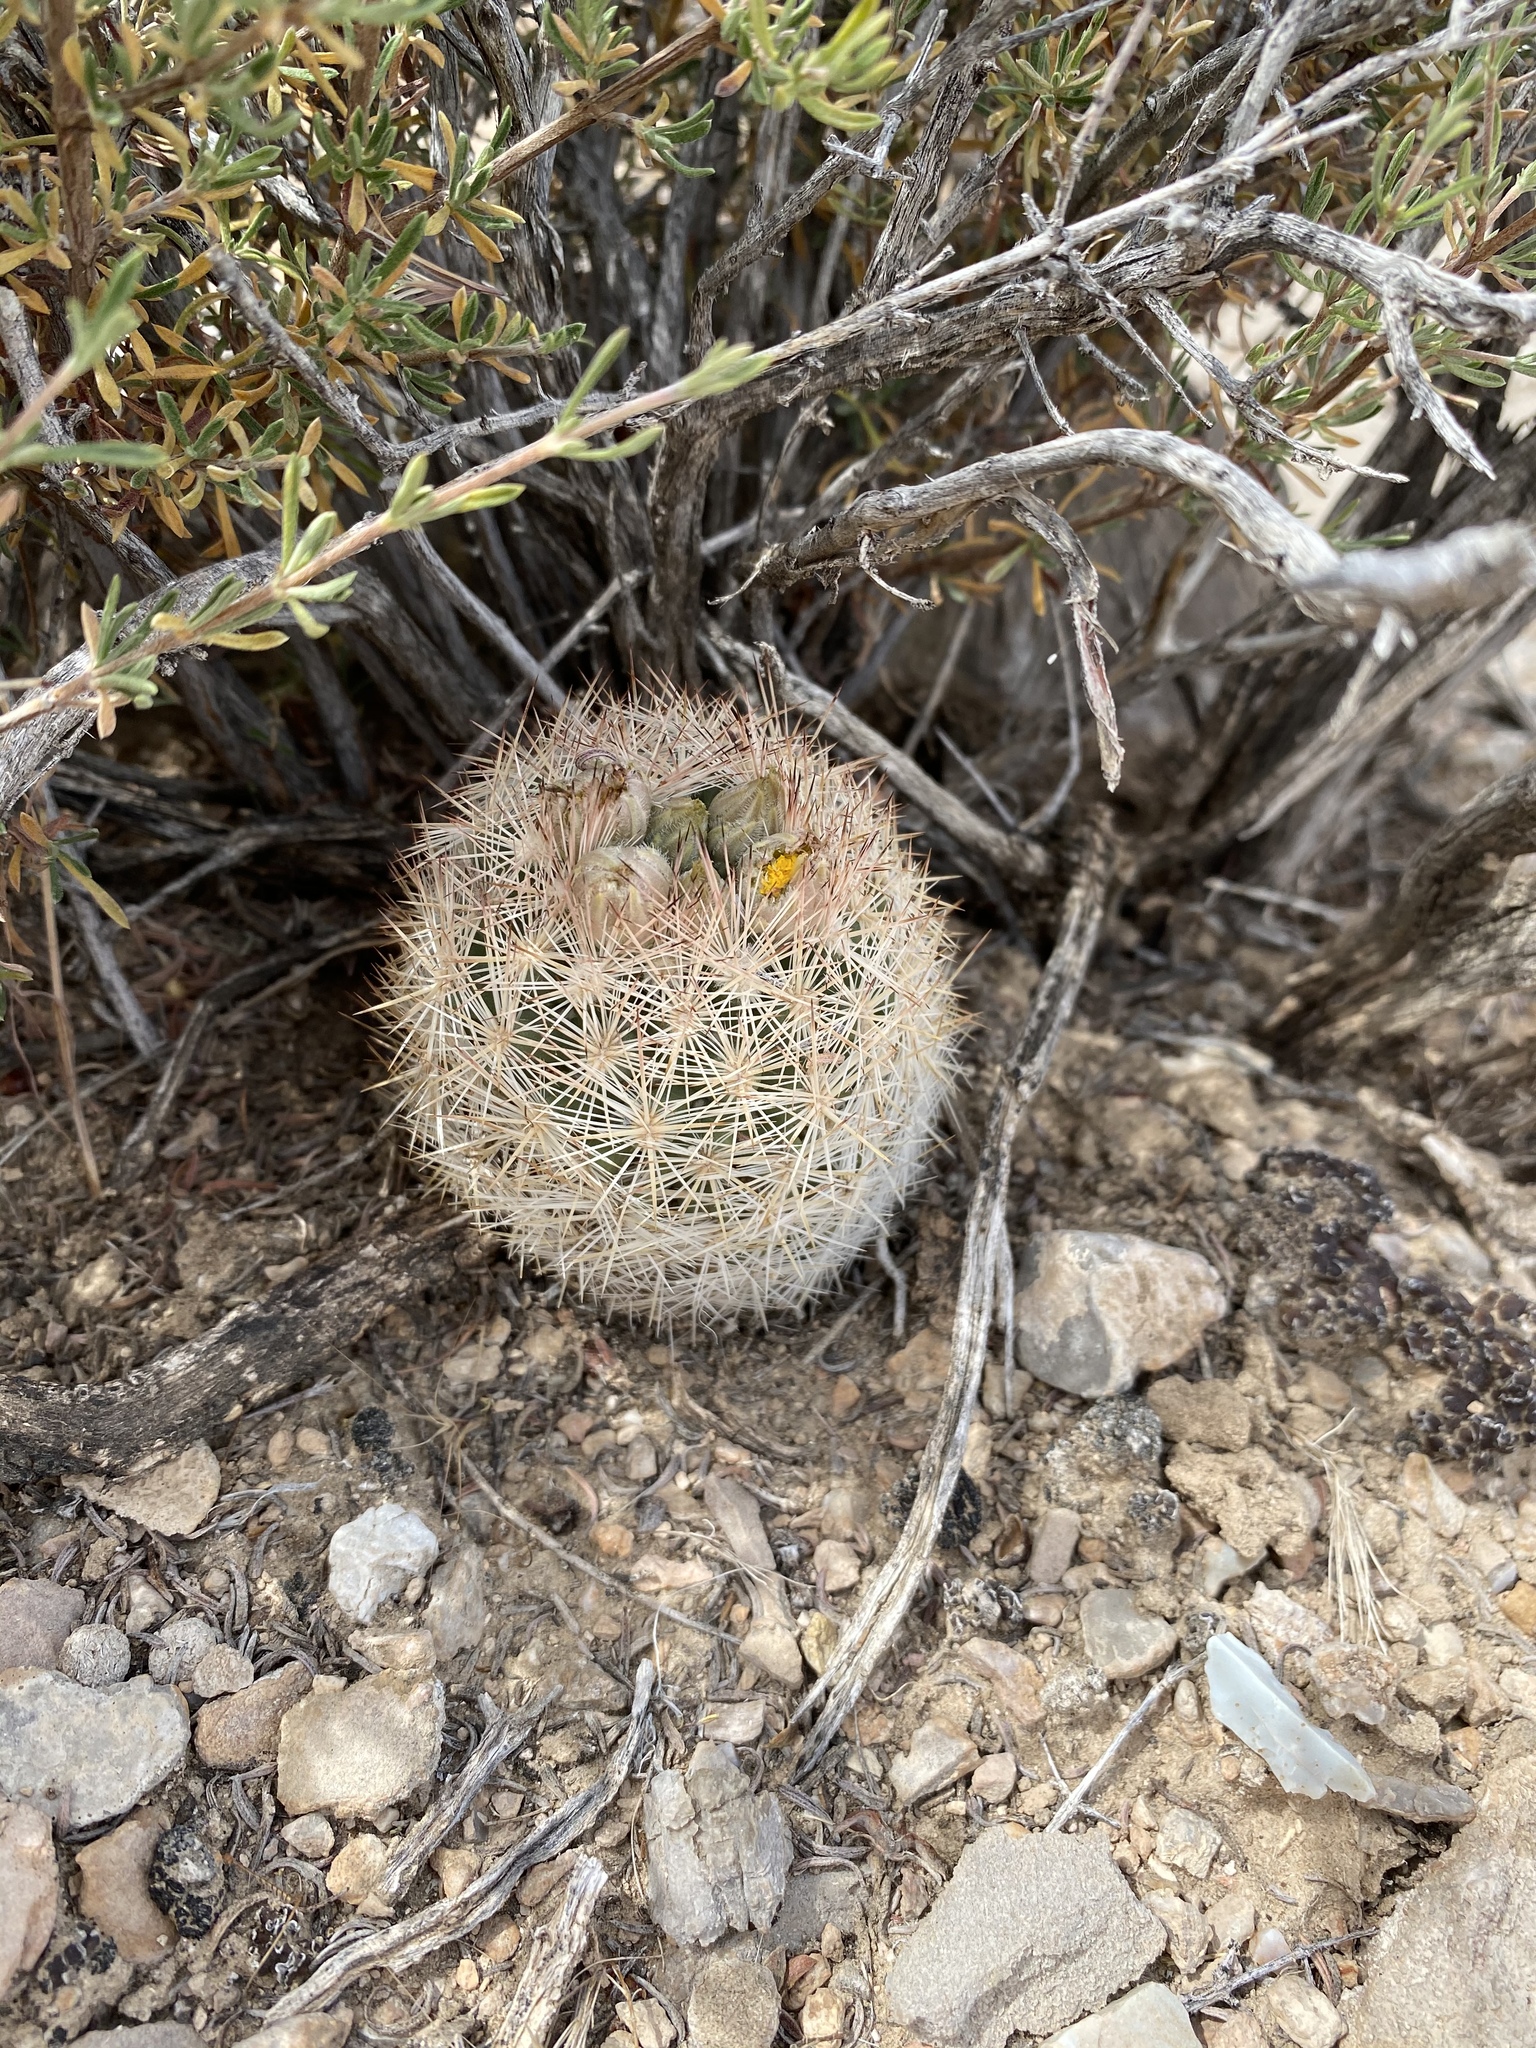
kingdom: Plantae
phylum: Tracheophyta
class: Magnoliopsida
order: Caryophyllales
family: Cactaceae
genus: Pelecyphora
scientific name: Pelecyphora dasyacantha
